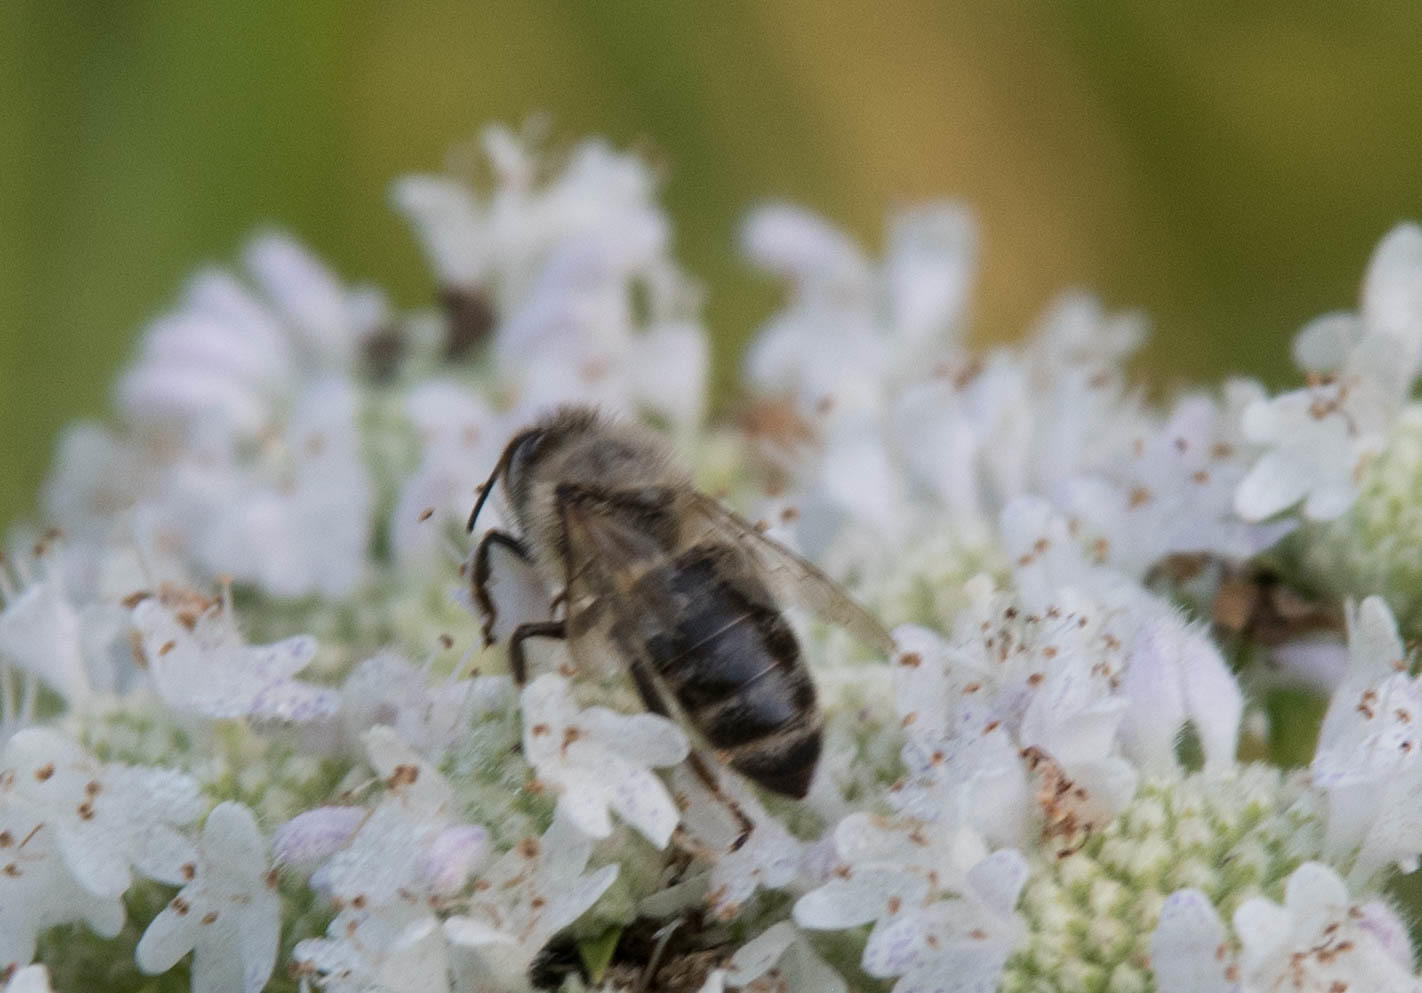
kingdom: Animalia
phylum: Arthropoda
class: Insecta
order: Hymenoptera
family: Apidae
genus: Apis
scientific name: Apis mellifera
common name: Honey bee
